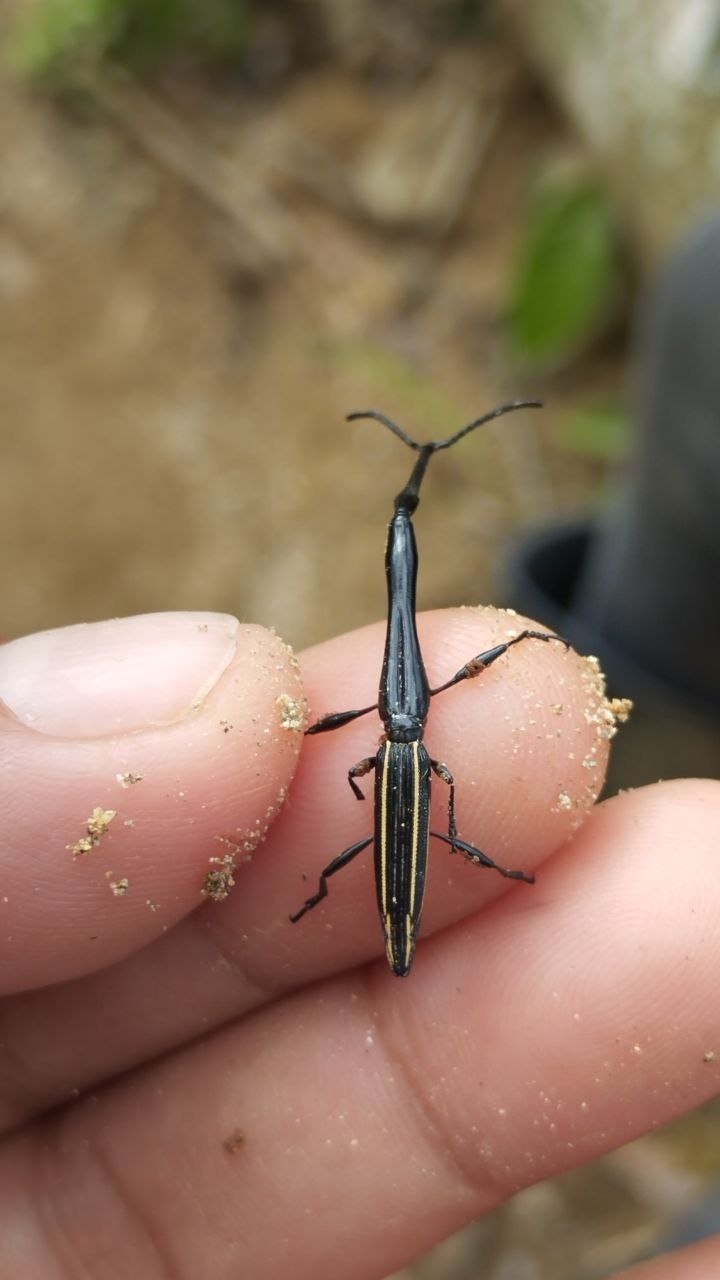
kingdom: Animalia
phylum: Arthropoda
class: Insecta
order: Coleoptera
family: Brentidae
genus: Brentus
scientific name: Brentus anchorago
